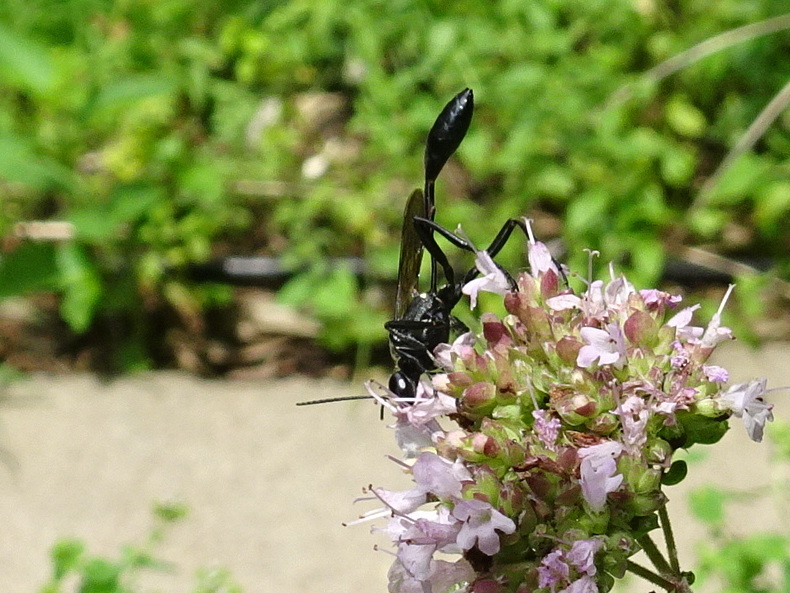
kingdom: Animalia
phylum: Arthropoda
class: Insecta
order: Hymenoptera
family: Sphecidae
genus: Eremnophila
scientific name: Eremnophila aureonotata
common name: Gold-marked thread-waisted wasp
